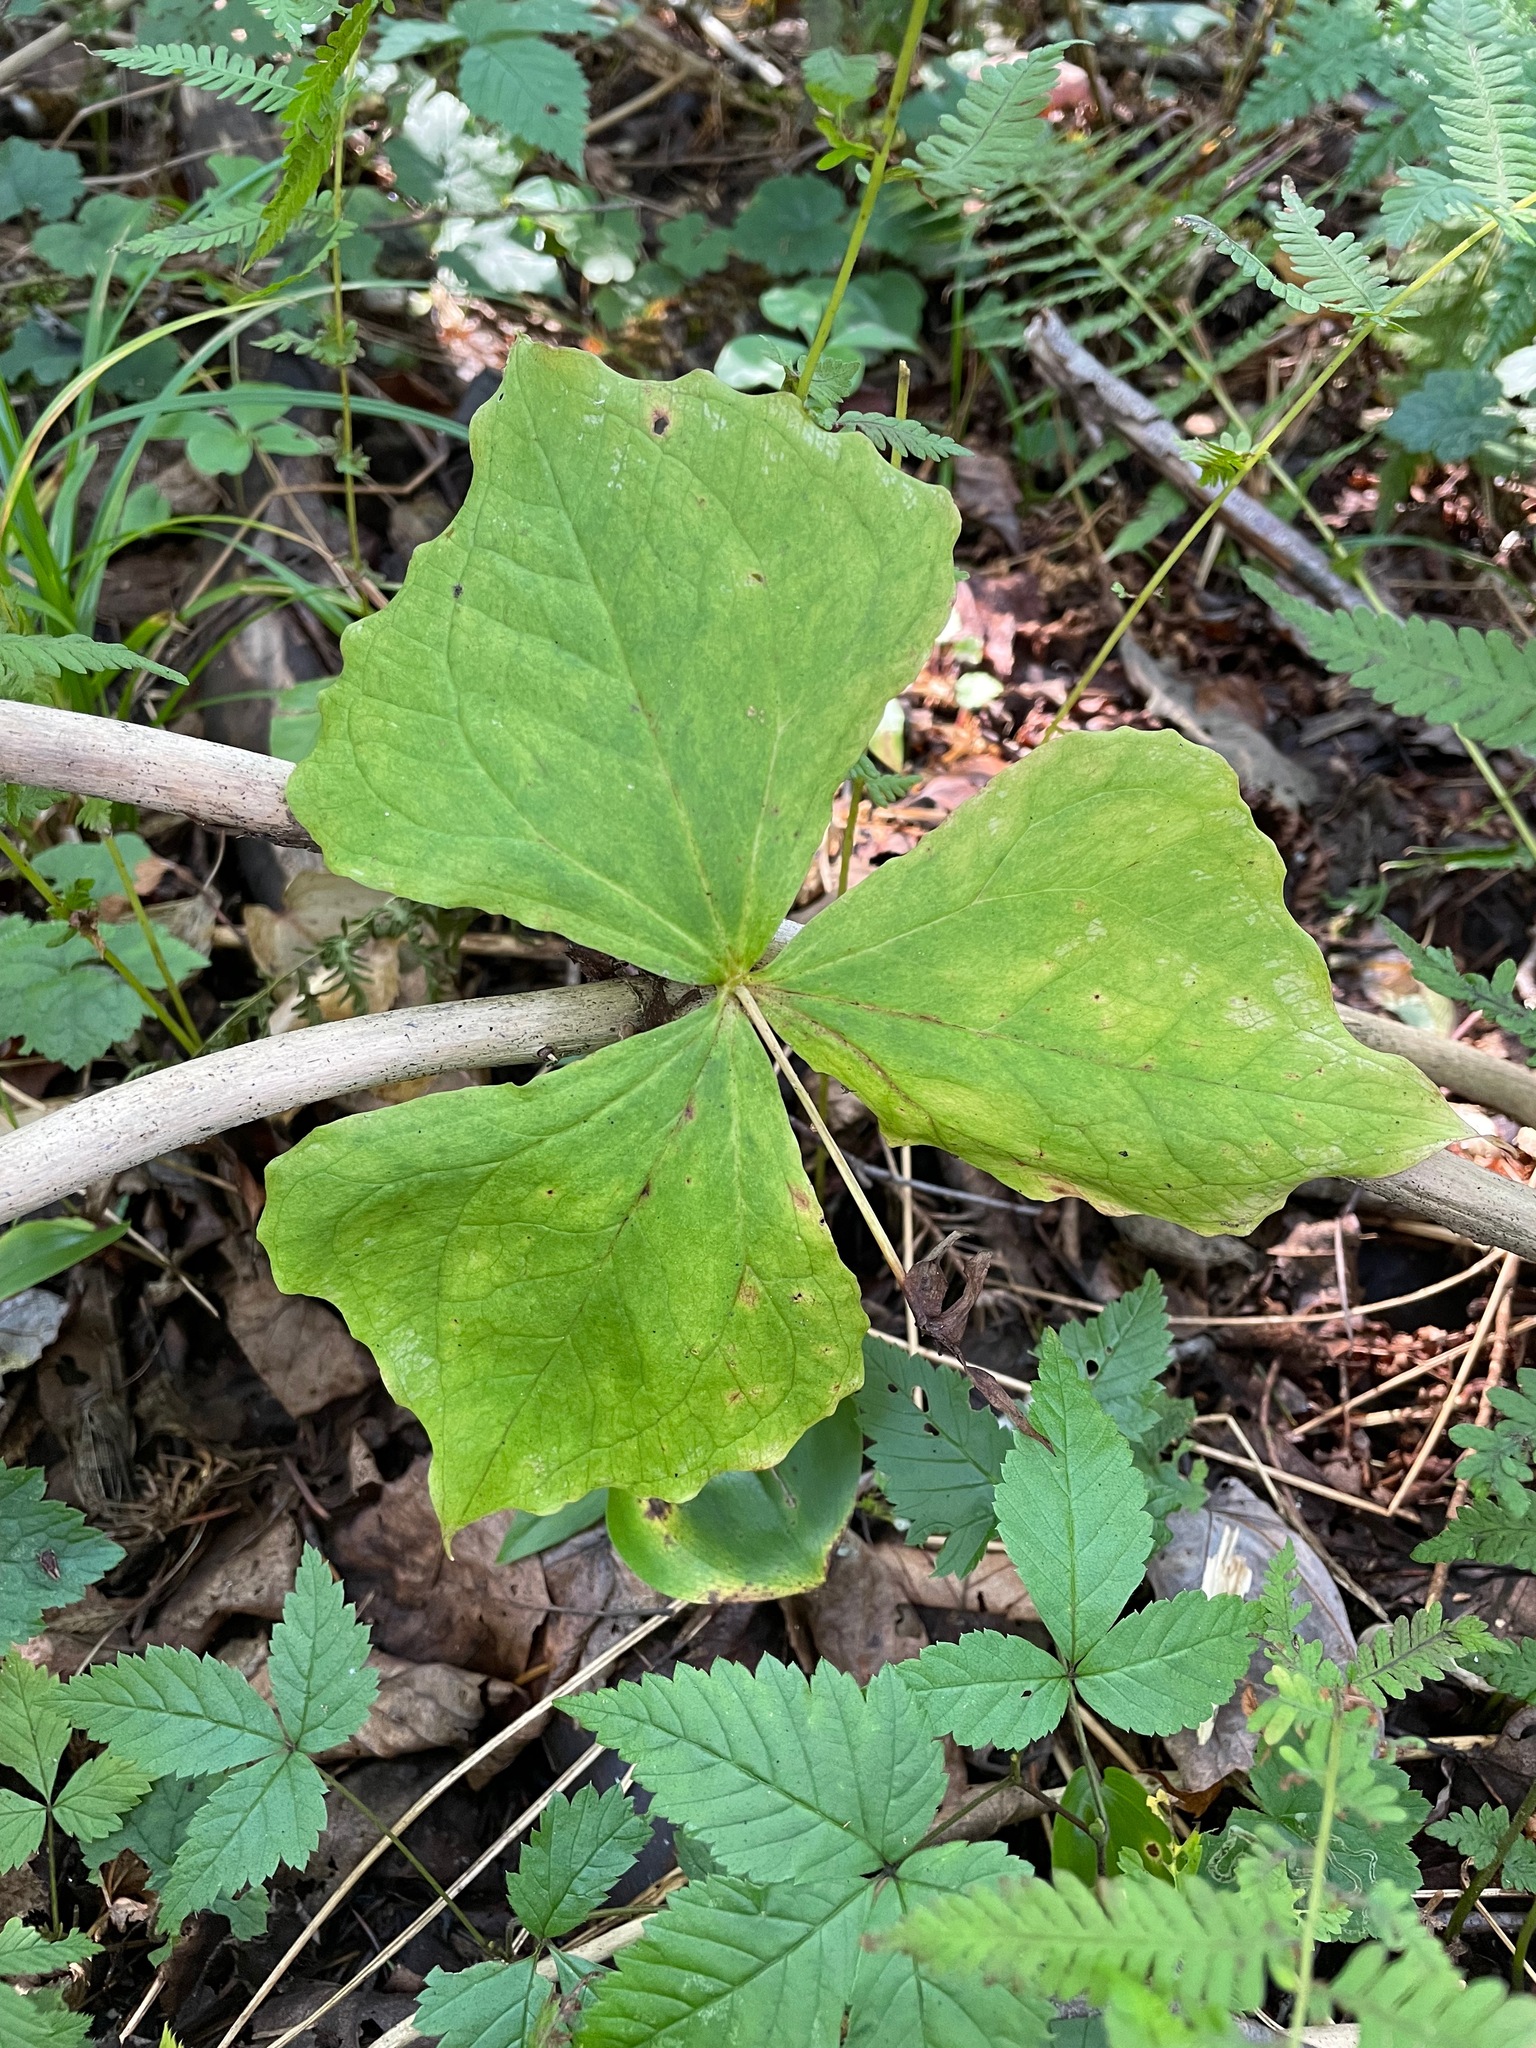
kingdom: Plantae
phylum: Tracheophyta
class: Liliopsida
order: Liliales
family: Melanthiaceae
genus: Trillium
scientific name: Trillium erectum
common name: Purple trillium
